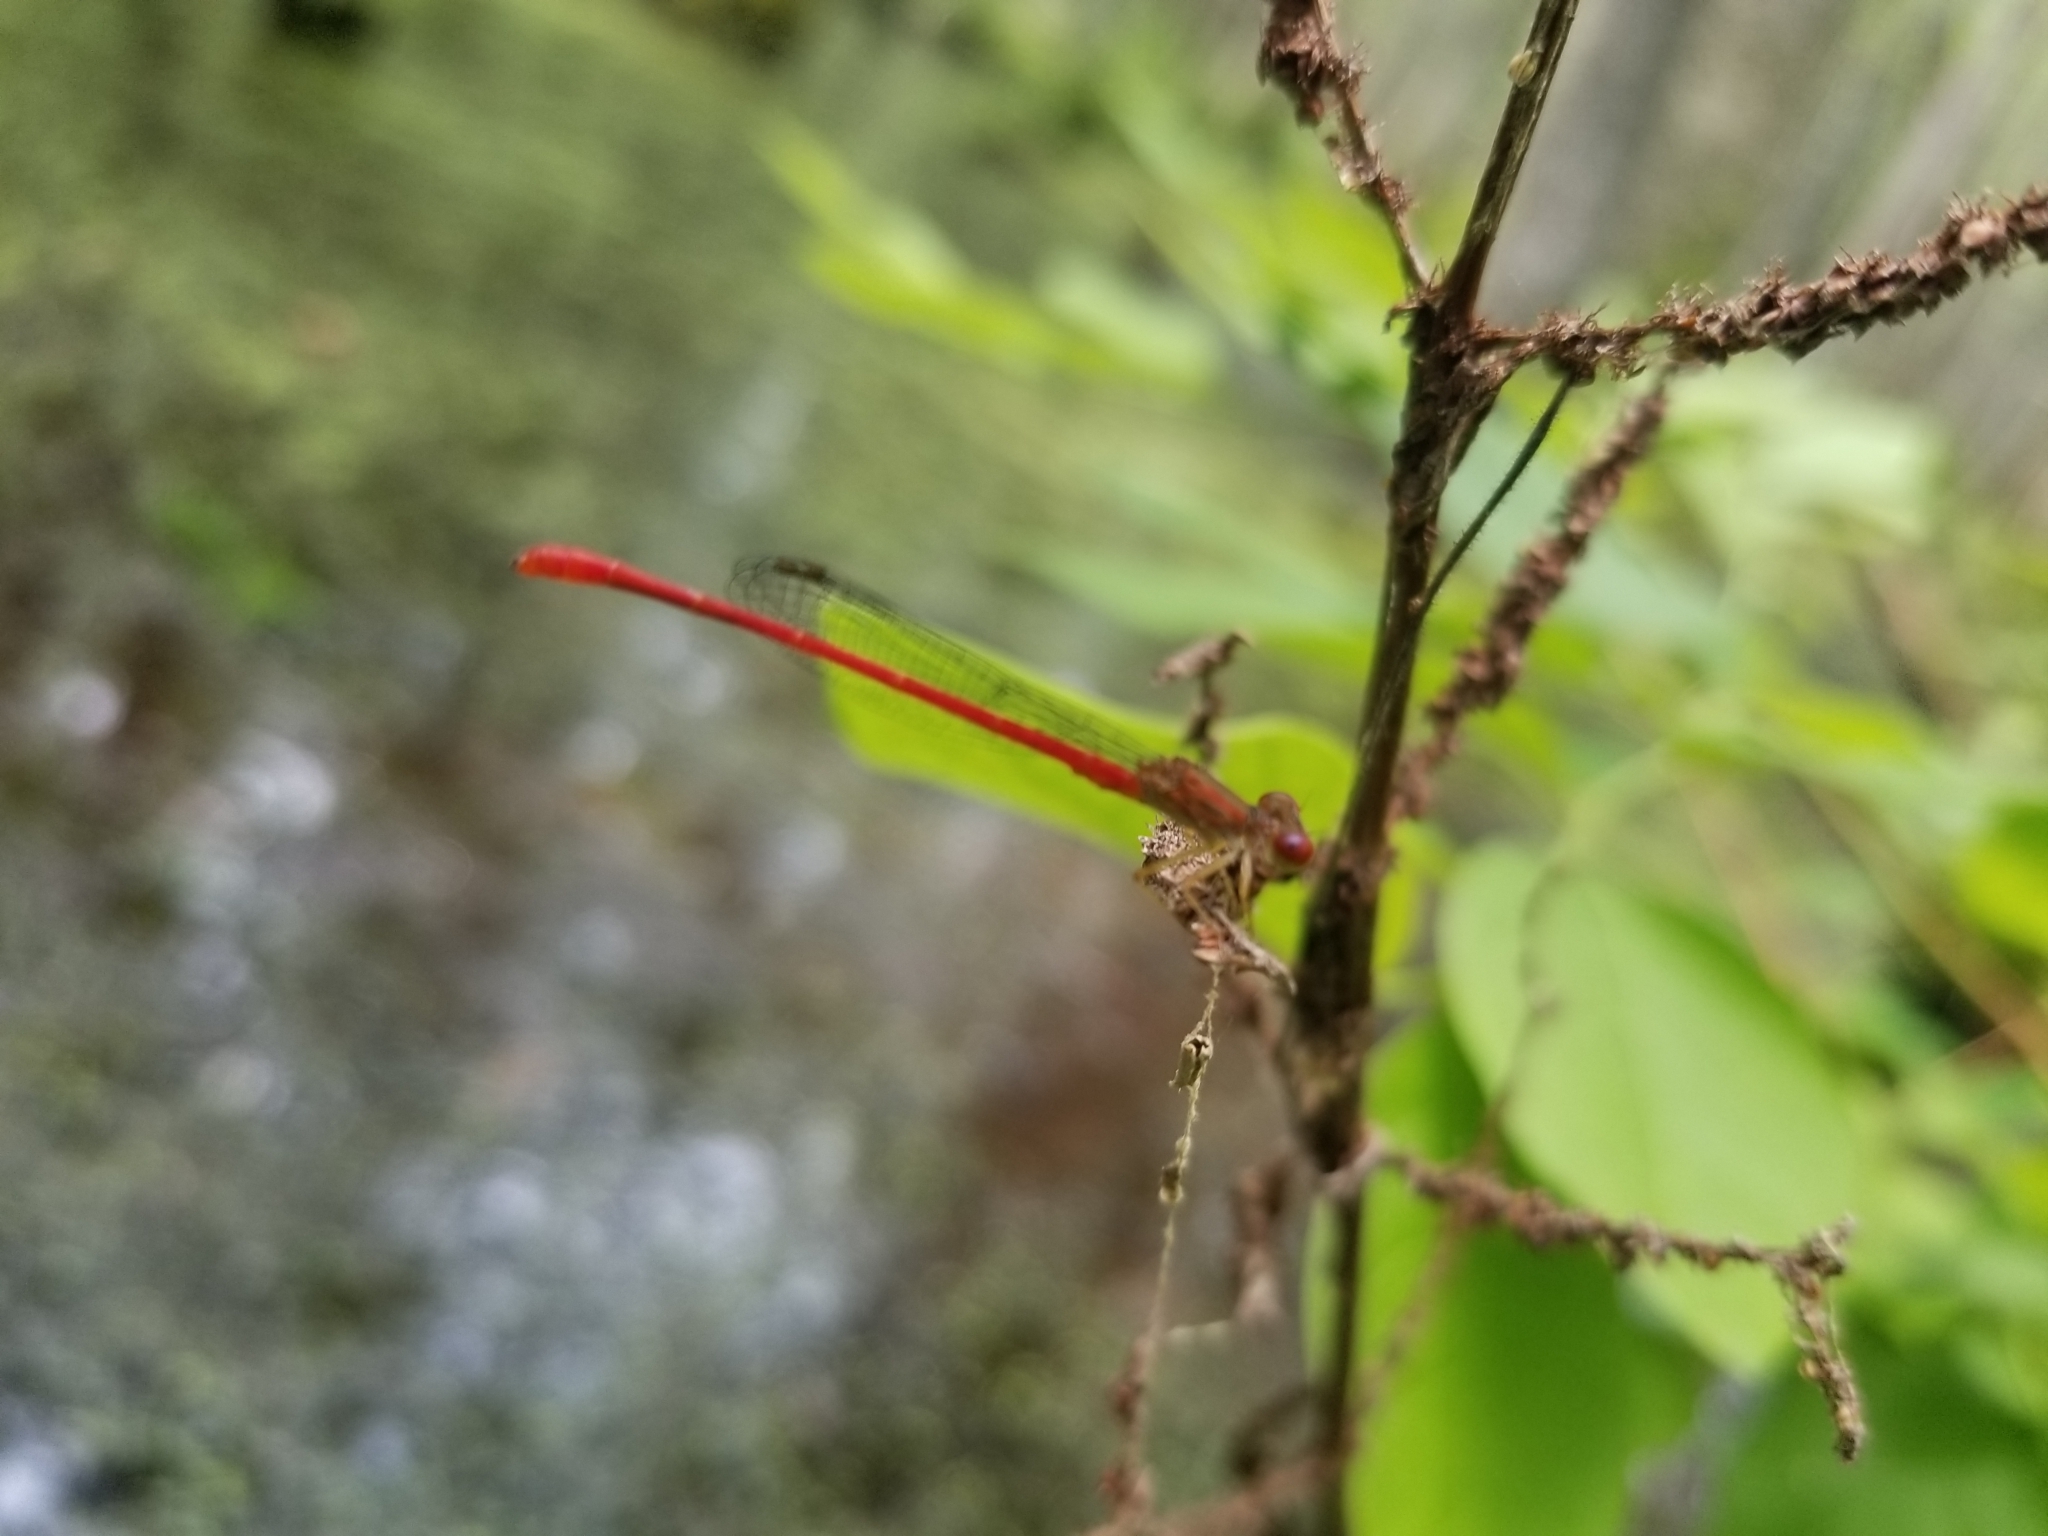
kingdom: Animalia
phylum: Arthropoda
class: Insecta
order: Odonata
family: Coenagrionidae
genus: Telebasis
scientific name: Telebasis byersi
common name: Duckweed firetail
